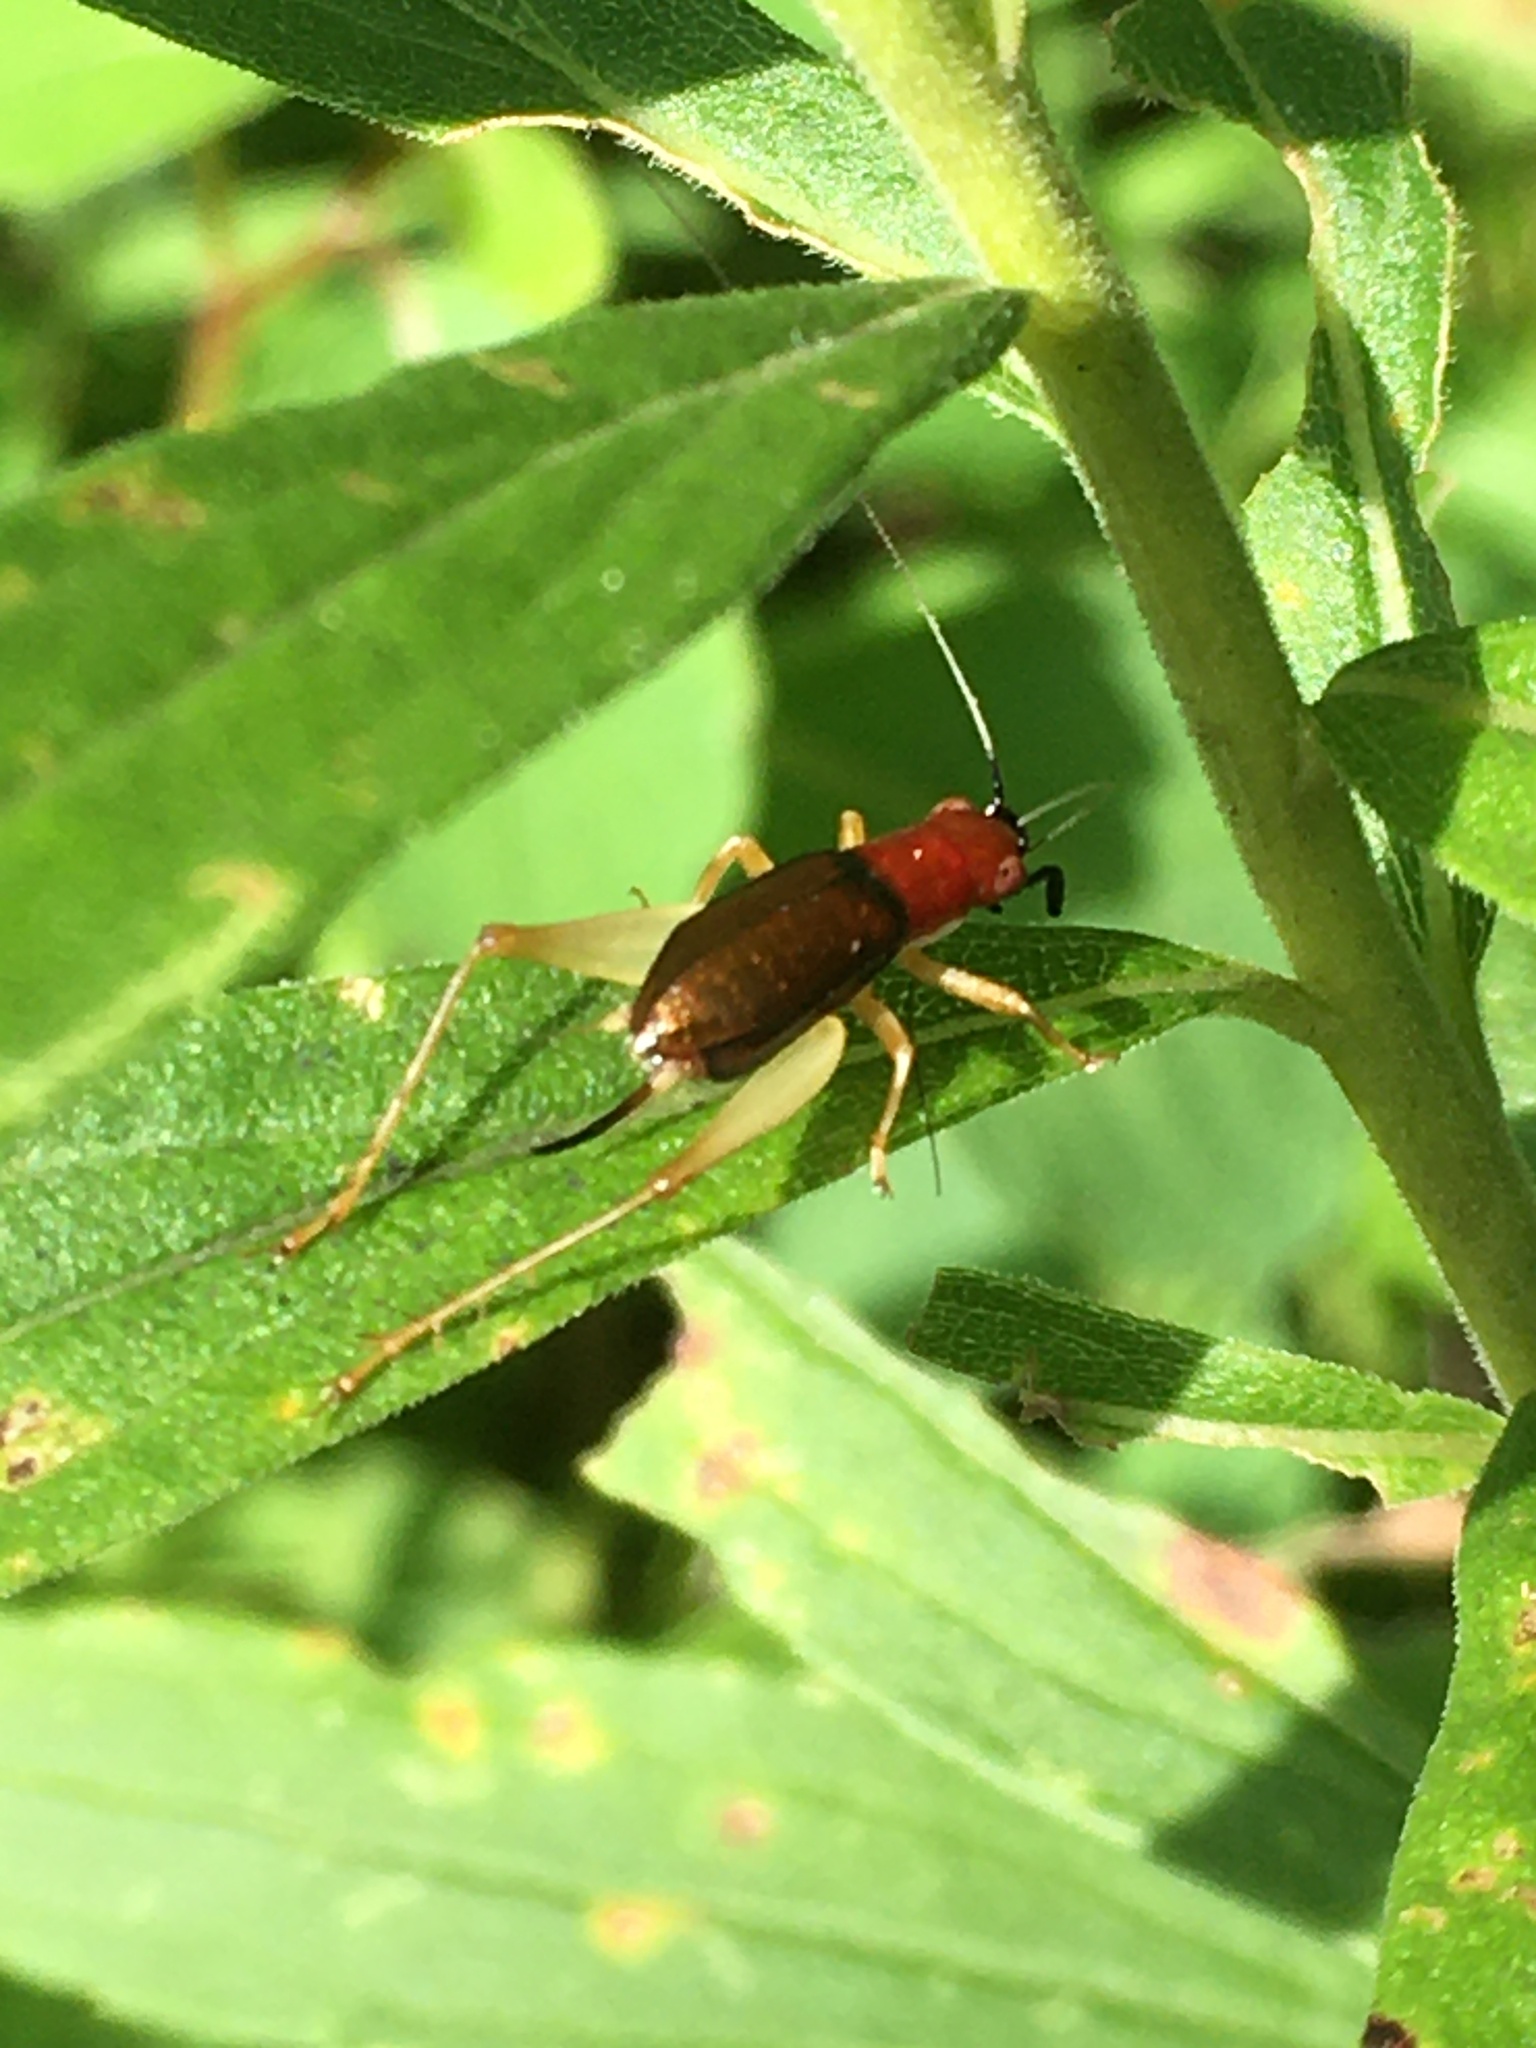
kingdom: Animalia
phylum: Arthropoda
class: Insecta
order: Orthoptera
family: Trigonidiidae
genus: Phyllopalpus
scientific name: Phyllopalpus pulchellus
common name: Handsome trig
